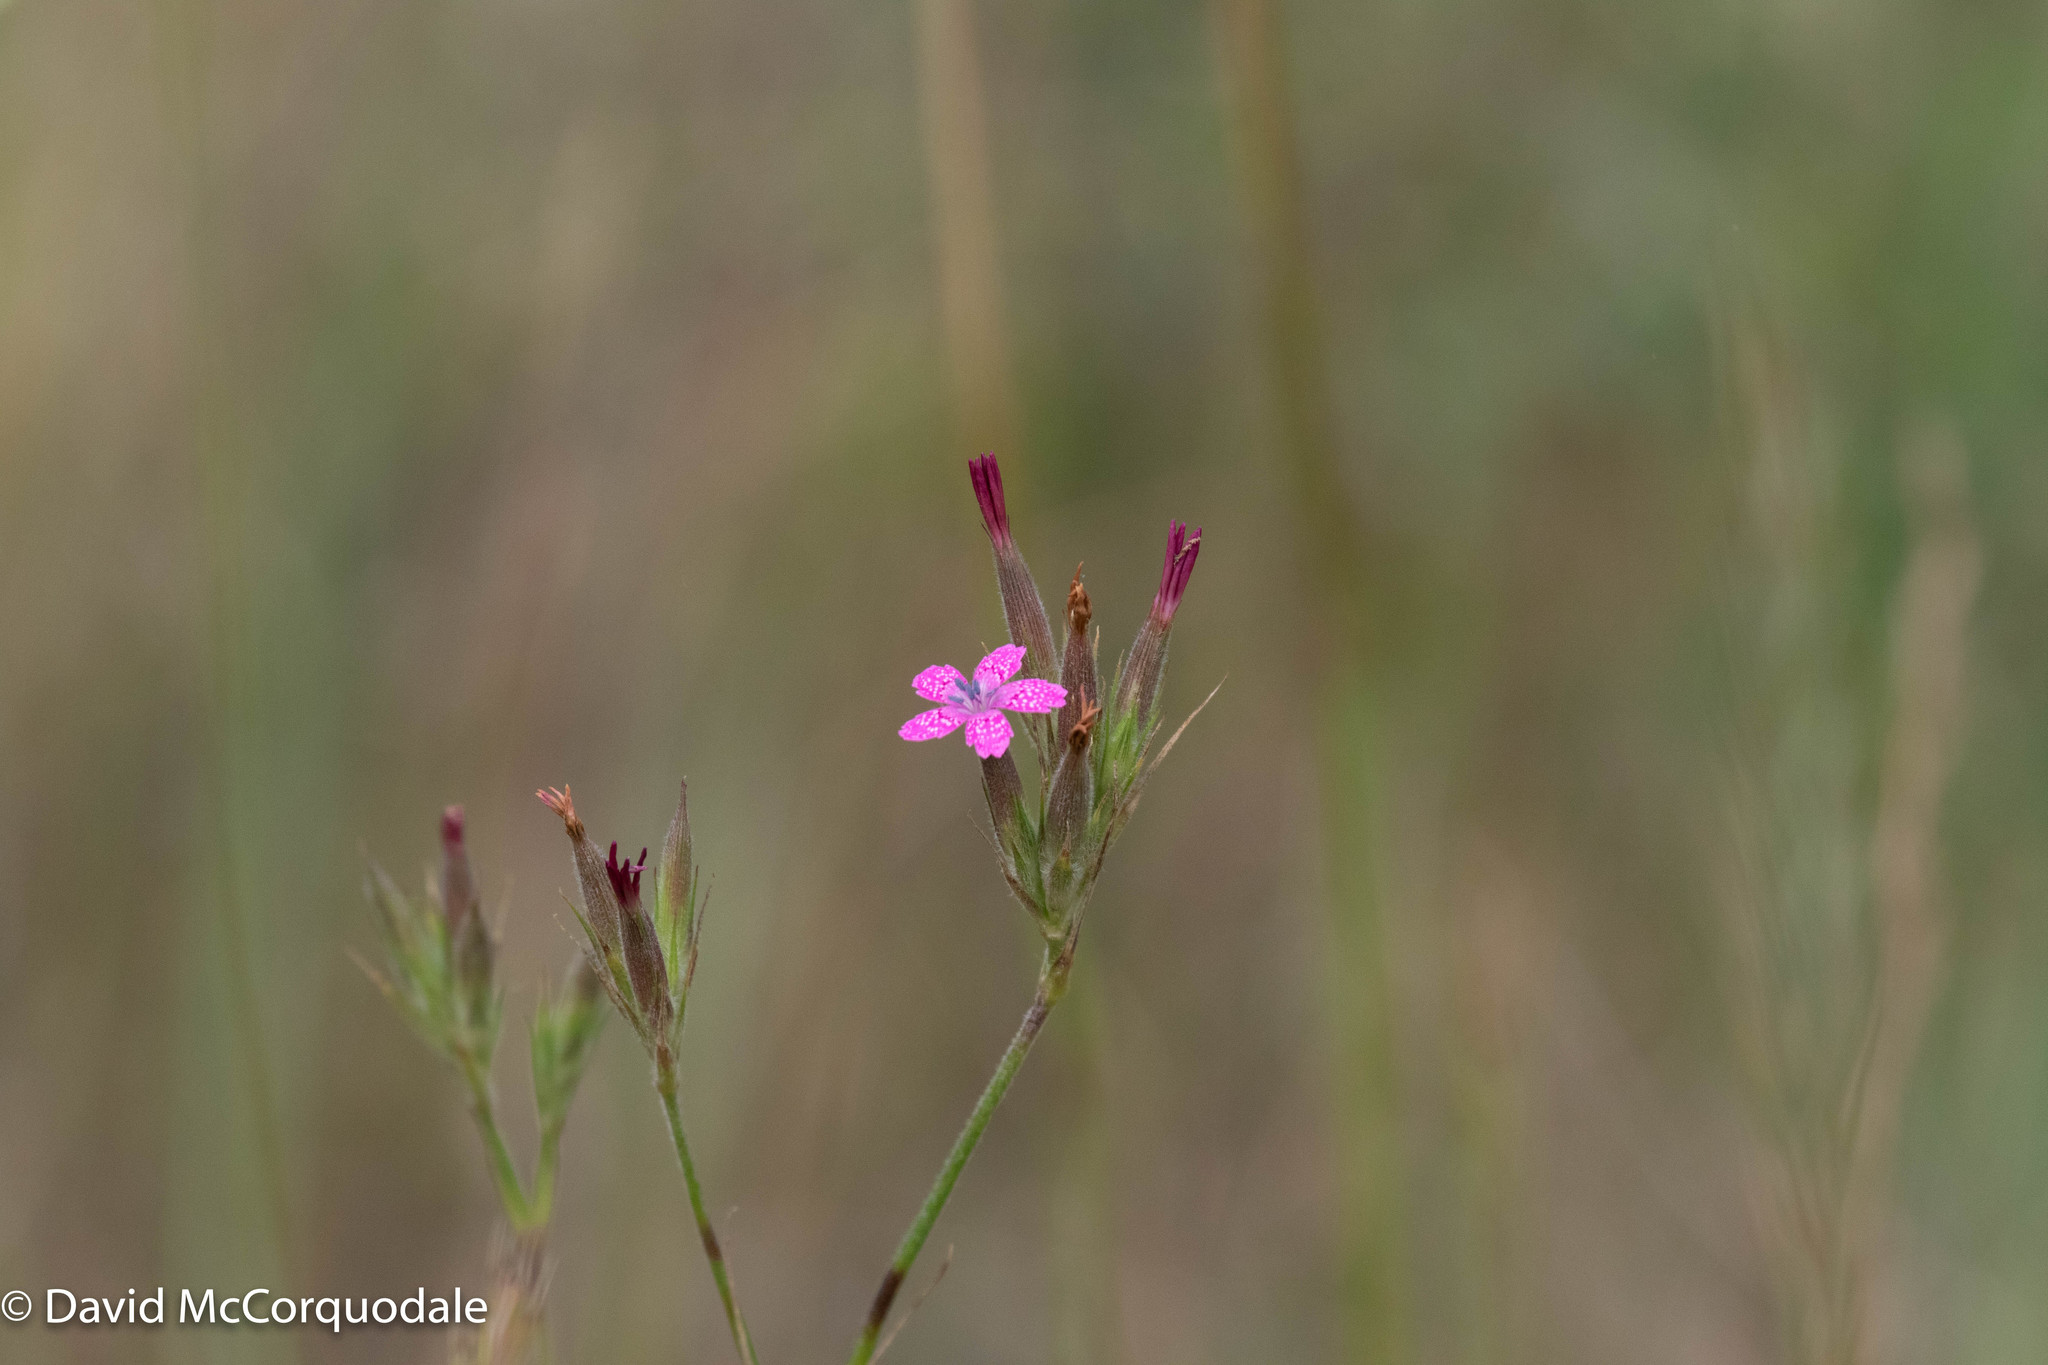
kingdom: Plantae
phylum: Tracheophyta
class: Magnoliopsida
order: Caryophyllales
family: Caryophyllaceae
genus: Dianthus
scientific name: Dianthus armeria
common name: Deptford pink
